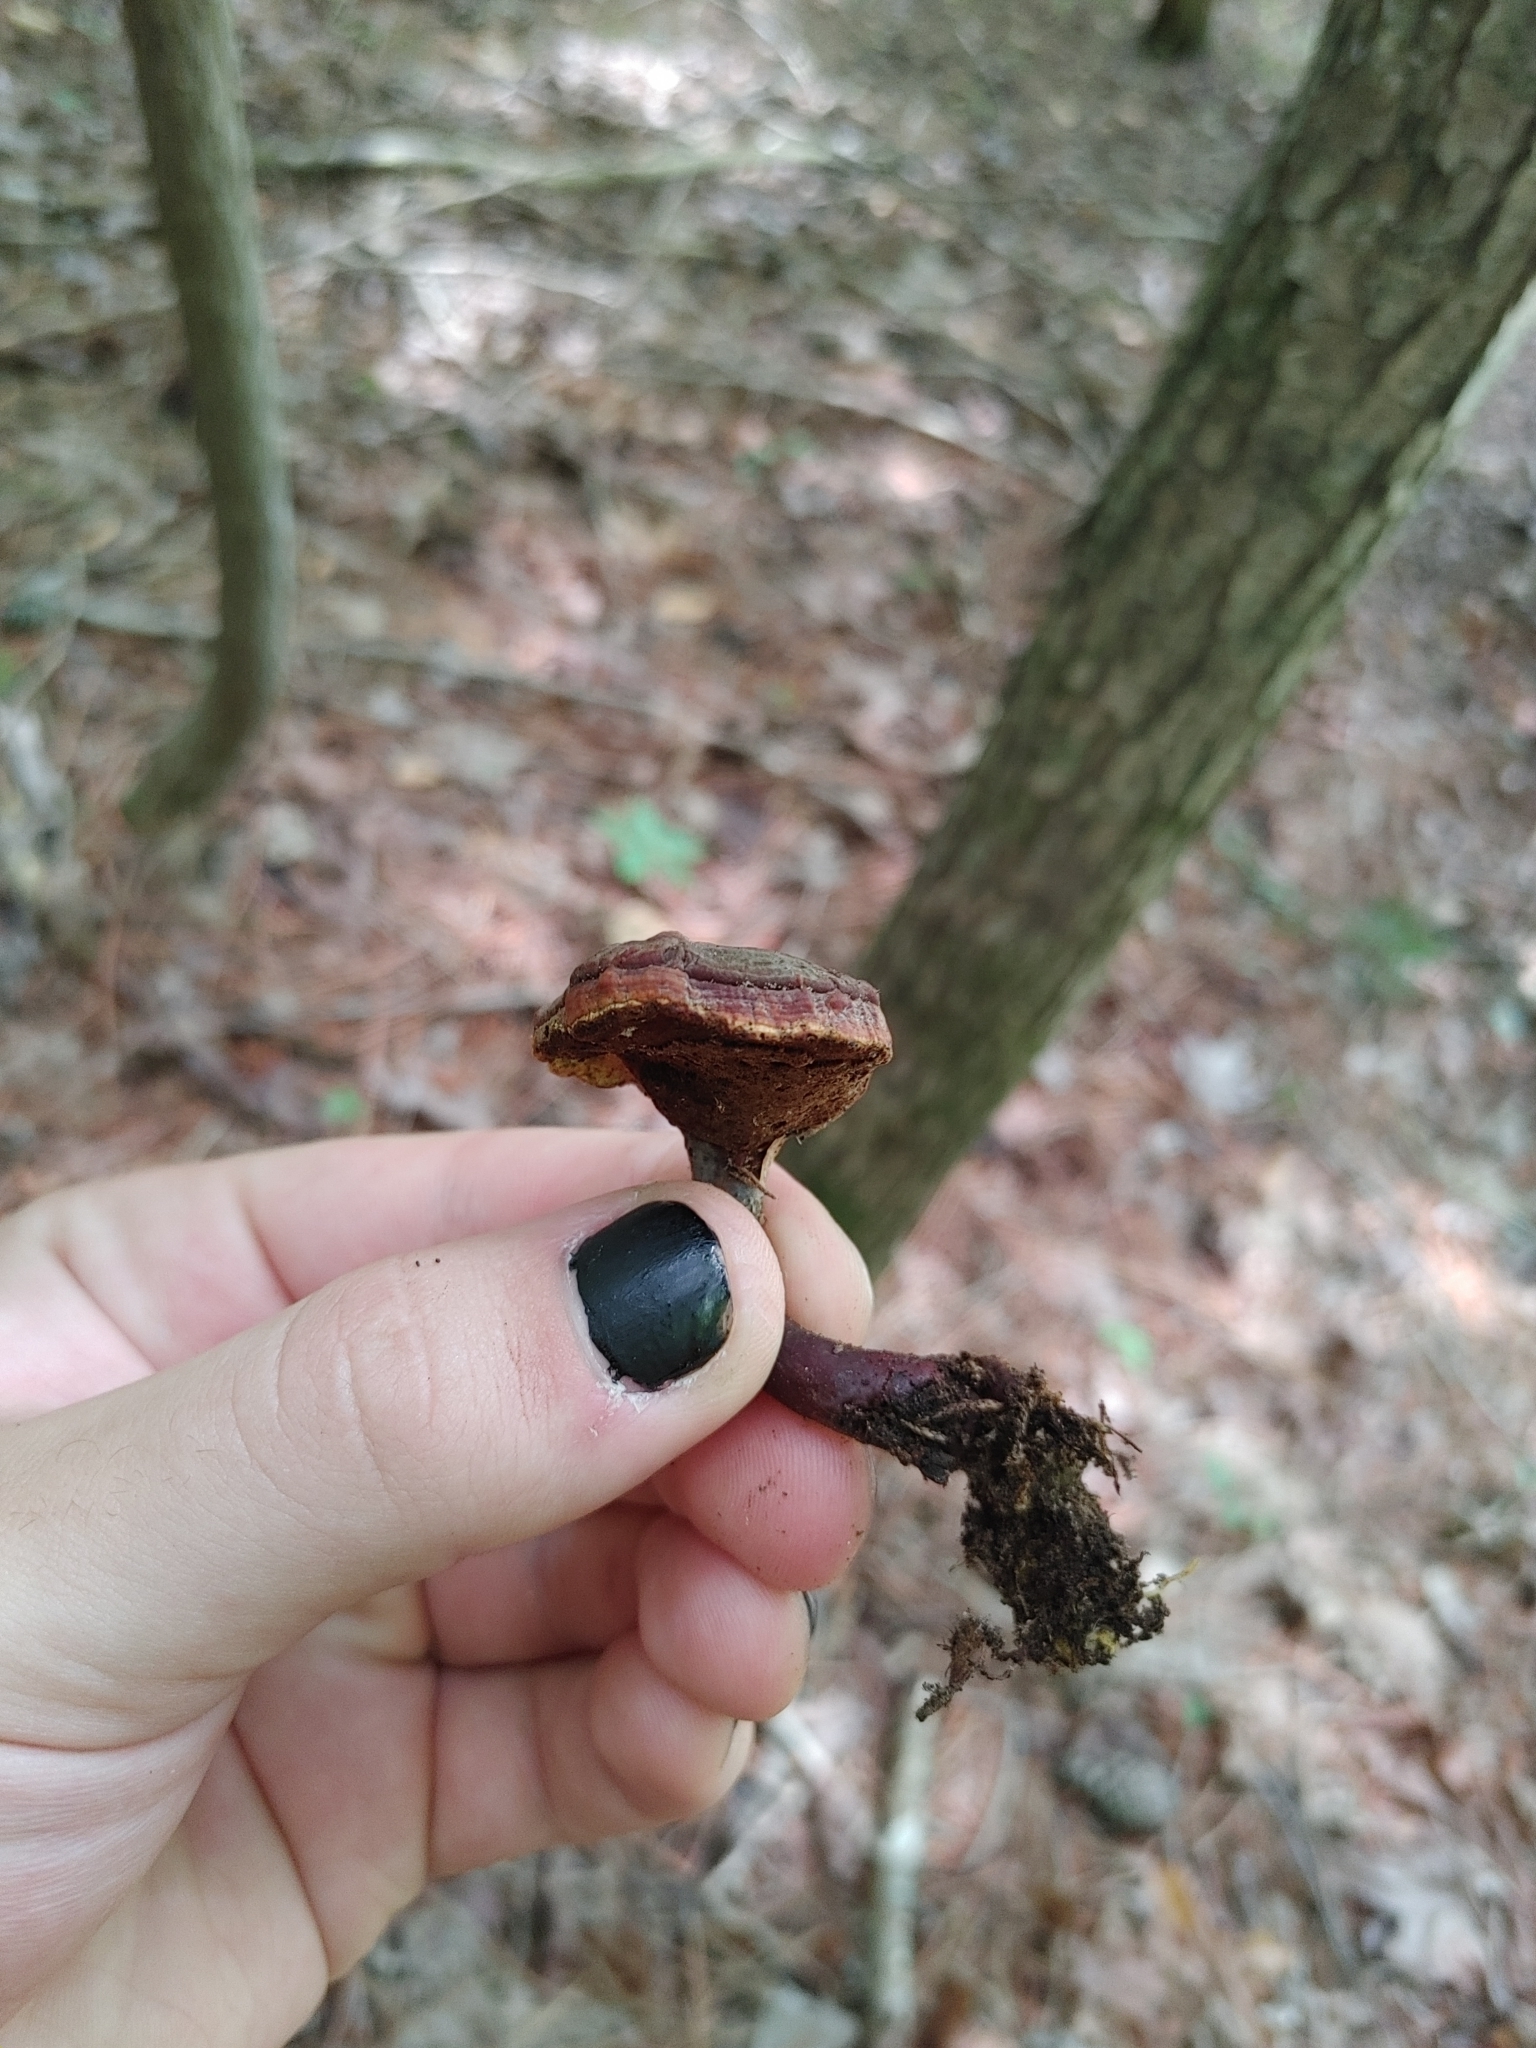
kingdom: Fungi
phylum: Basidiomycota
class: Agaricomycetes
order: Polyporales
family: Polyporaceae
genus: Ganoderma
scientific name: Ganoderma curtisii
